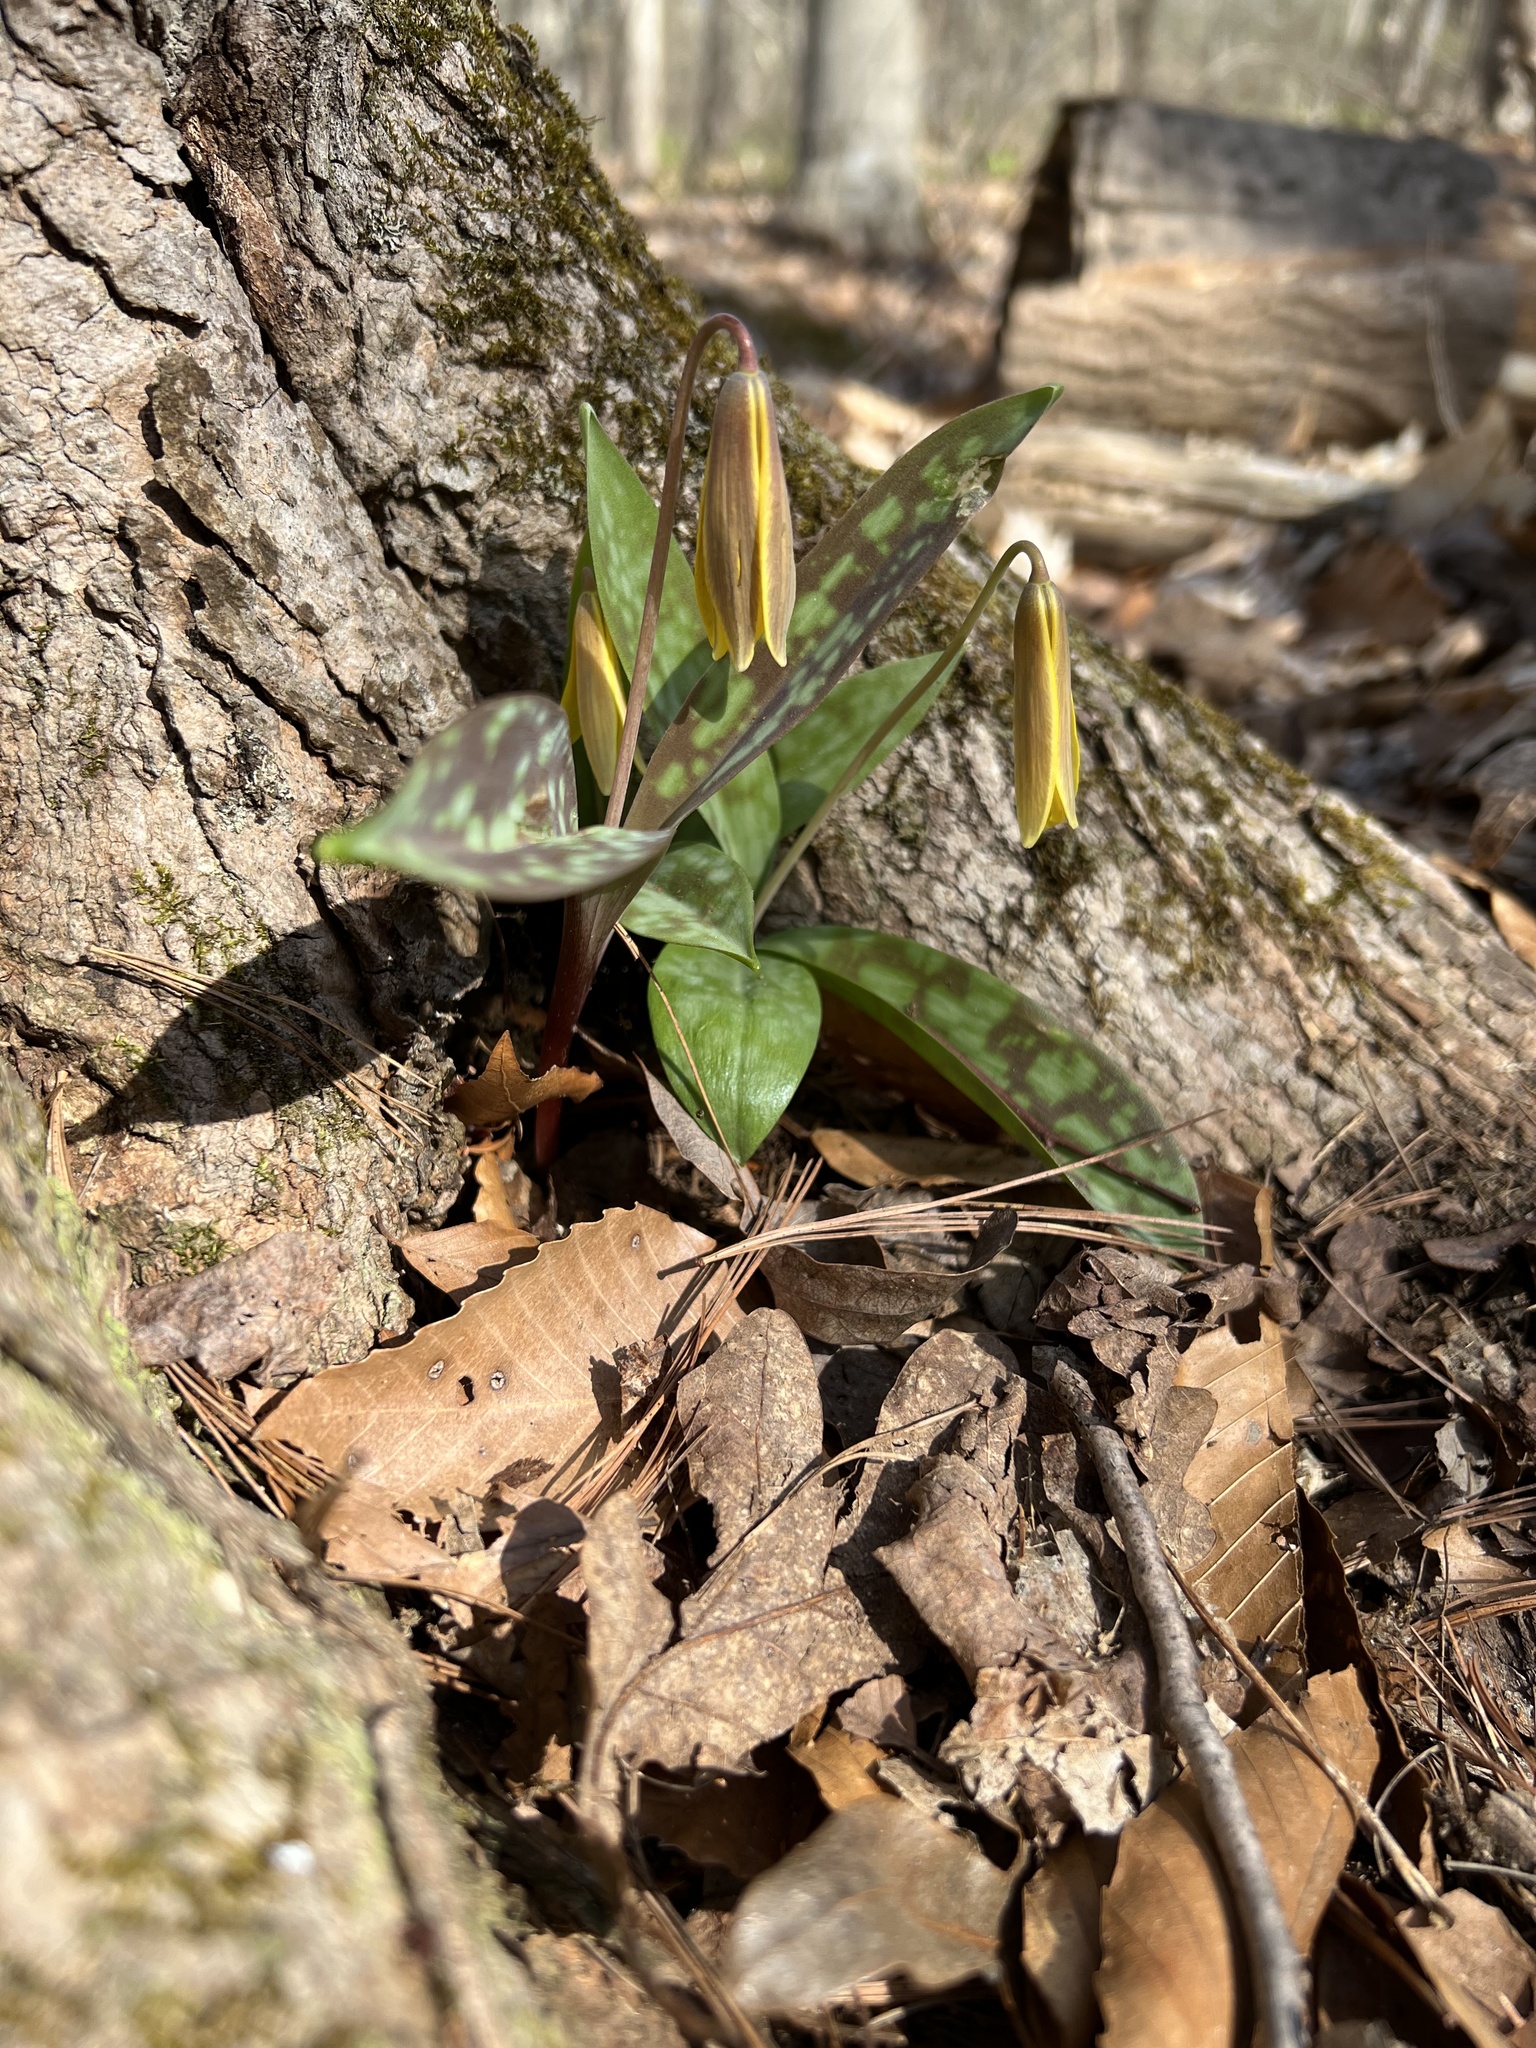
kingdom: Plantae
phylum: Tracheophyta
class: Liliopsida
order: Liliales
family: Liliaceae
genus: Erythronium
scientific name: Erythronium americanum
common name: Yellow adder's-tongue
